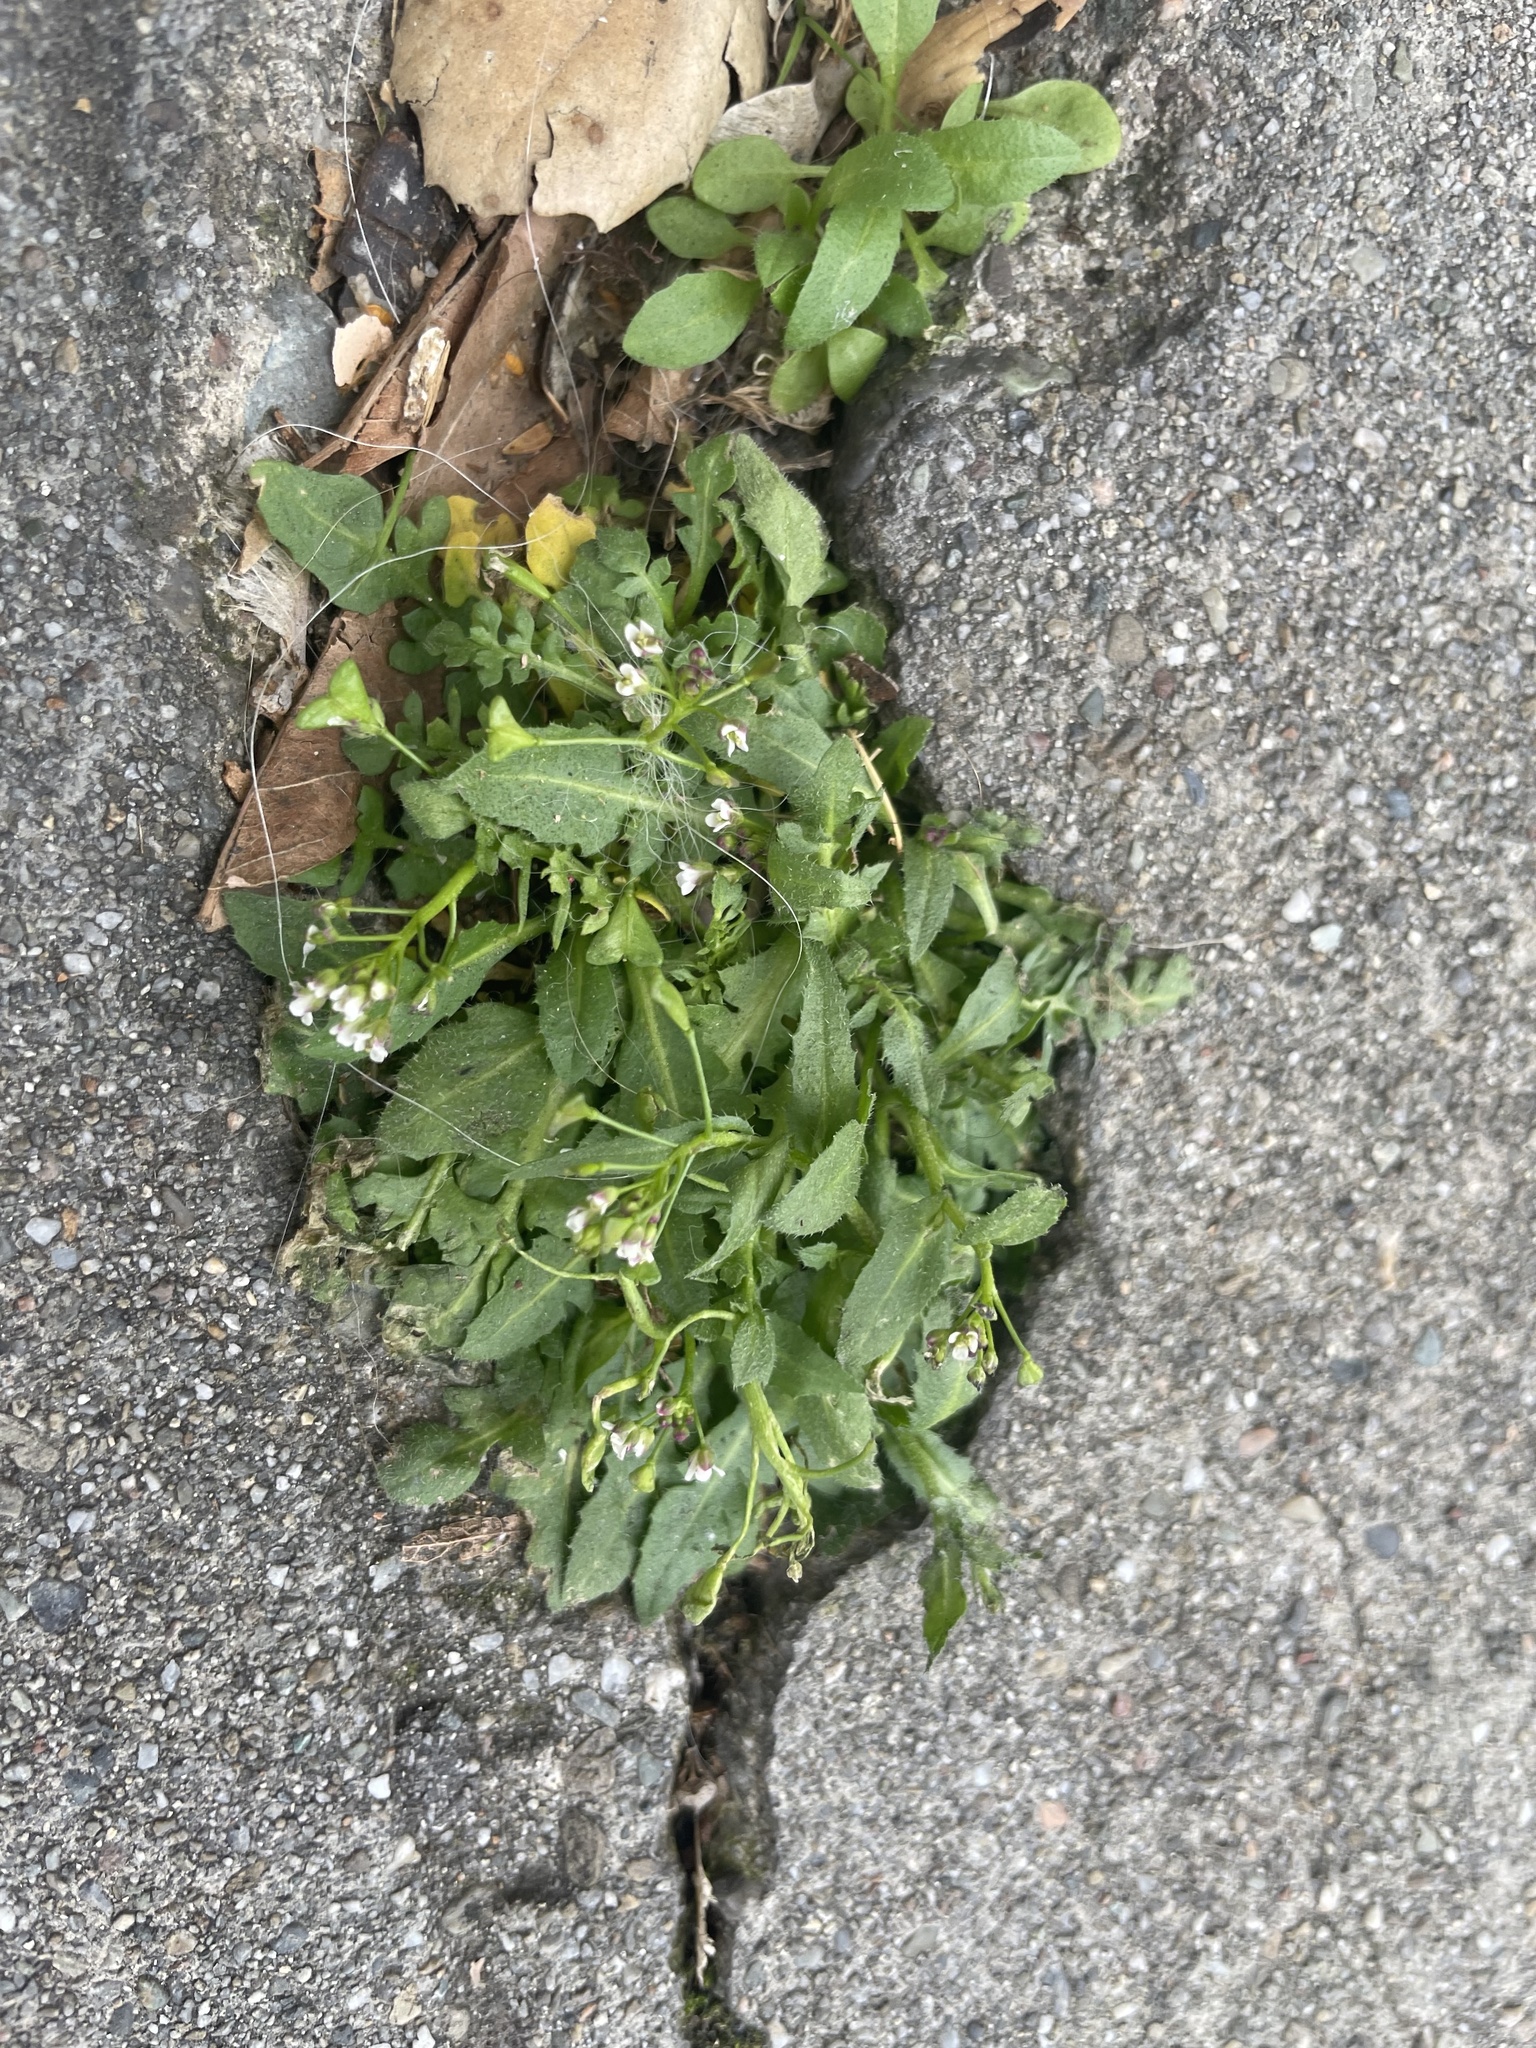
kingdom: Plantae
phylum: Tracheophyta
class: Magnoliopsida
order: Brassicales
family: Brassicaceae
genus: Capsella
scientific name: Capsella bursa-pastoris
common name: Shepherd's purse
